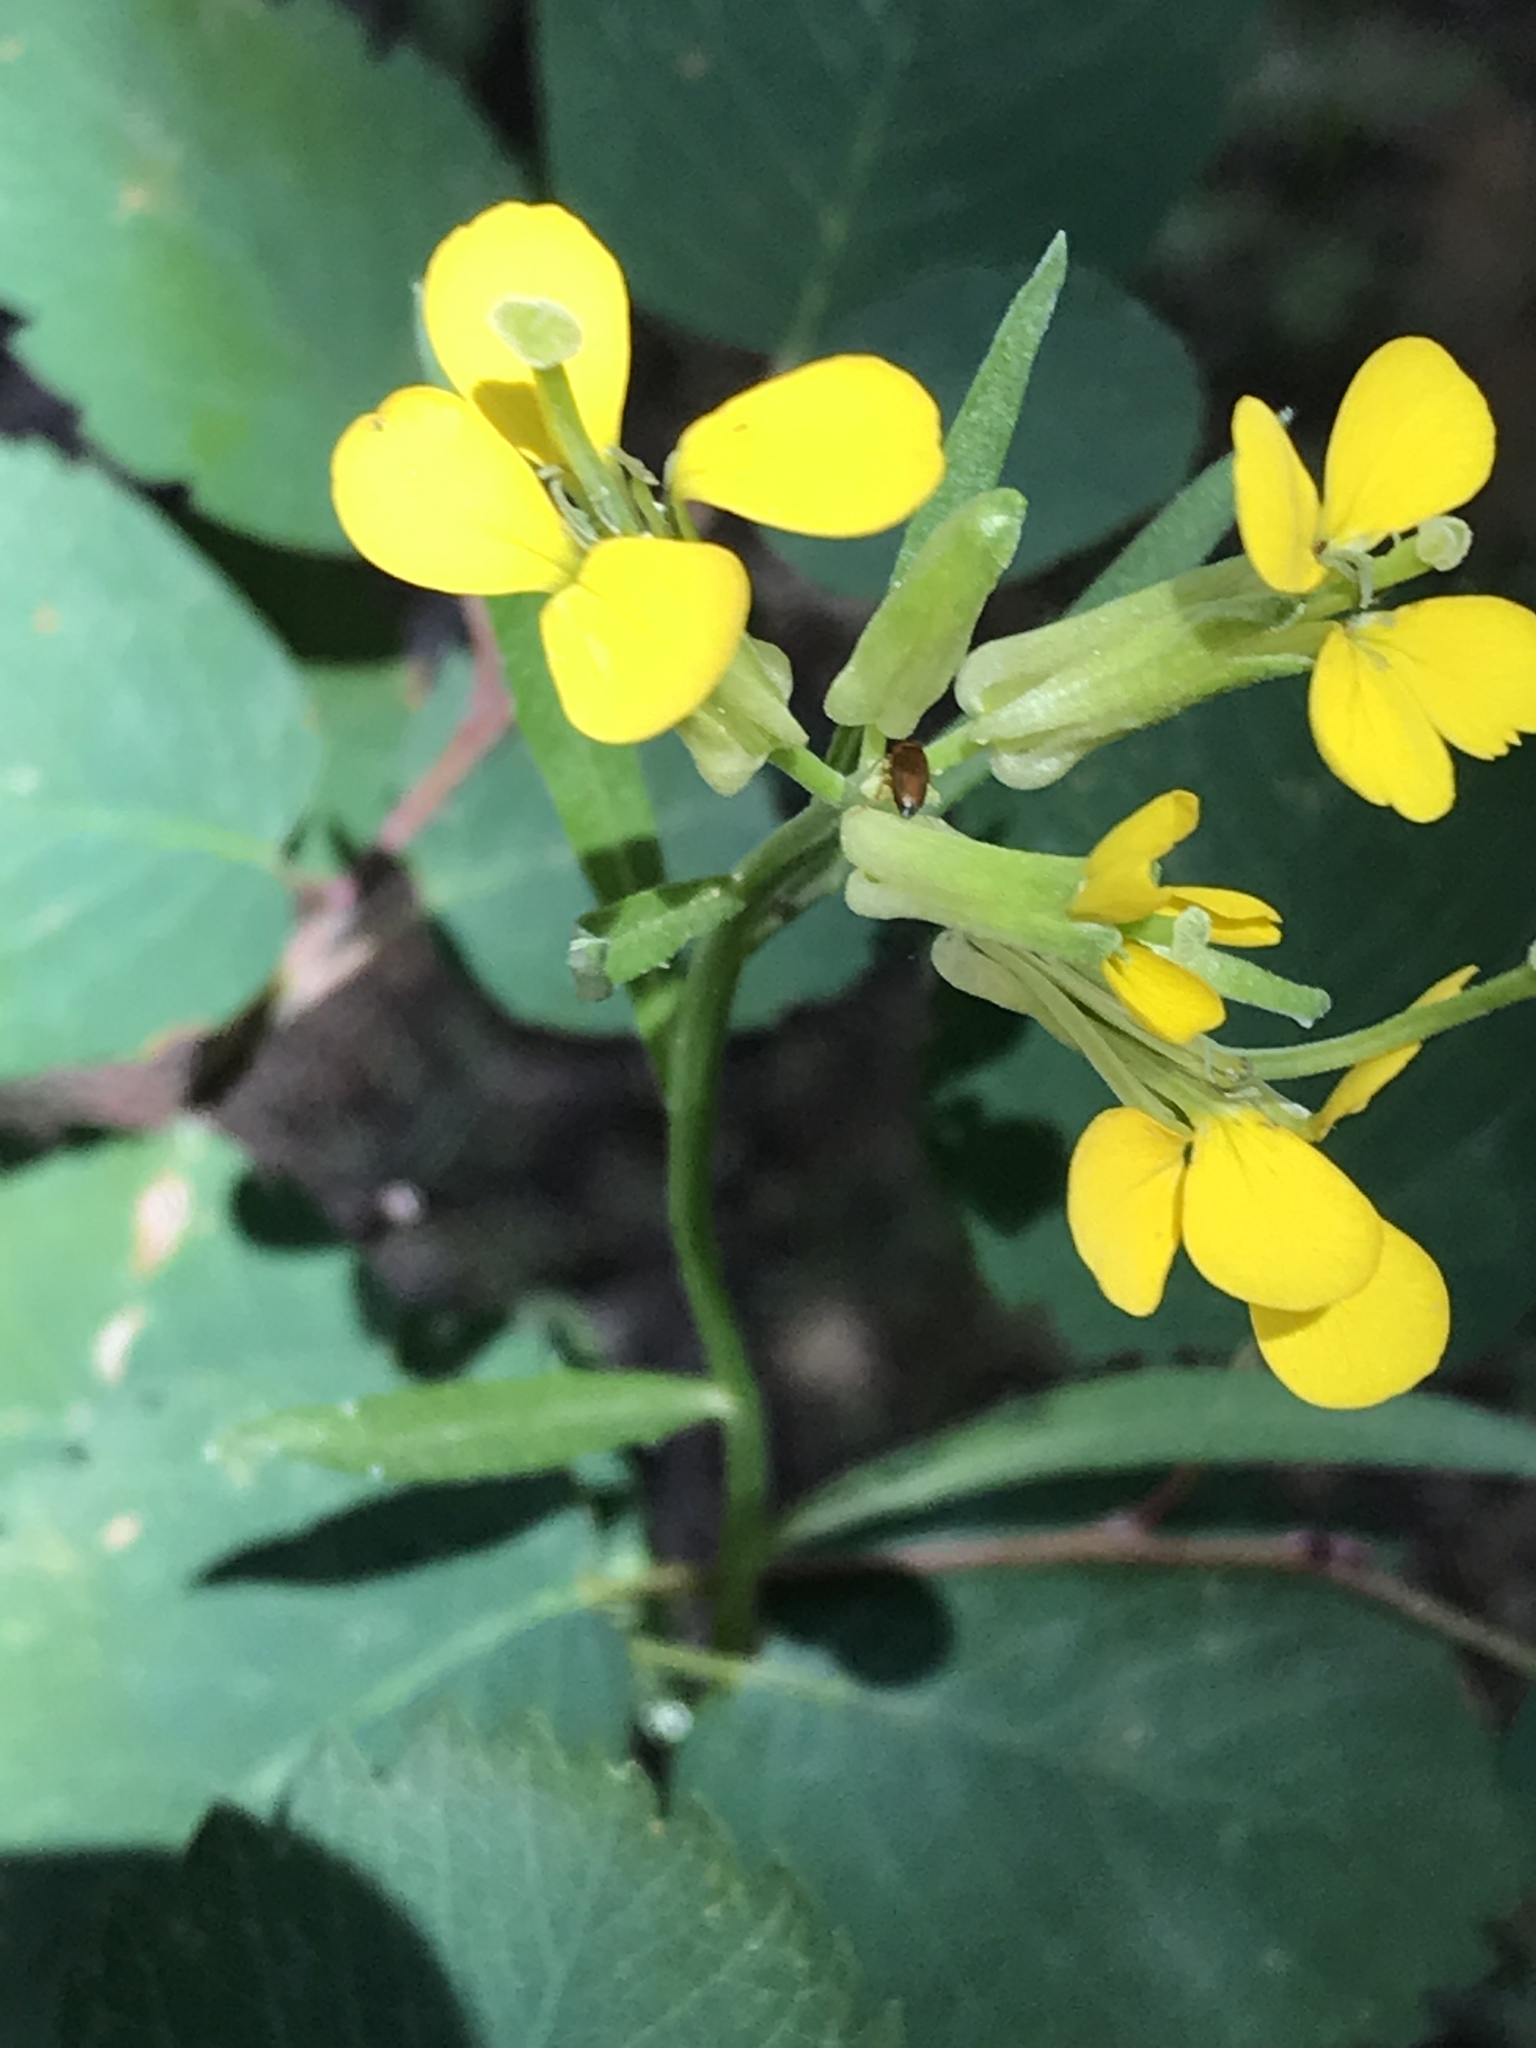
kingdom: Plantae
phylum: Tracheophyta
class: Magnoliopsida
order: Brassicales
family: Brassicaceae
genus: Erysimum
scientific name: Erysimum capitatum
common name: Western wallflower
